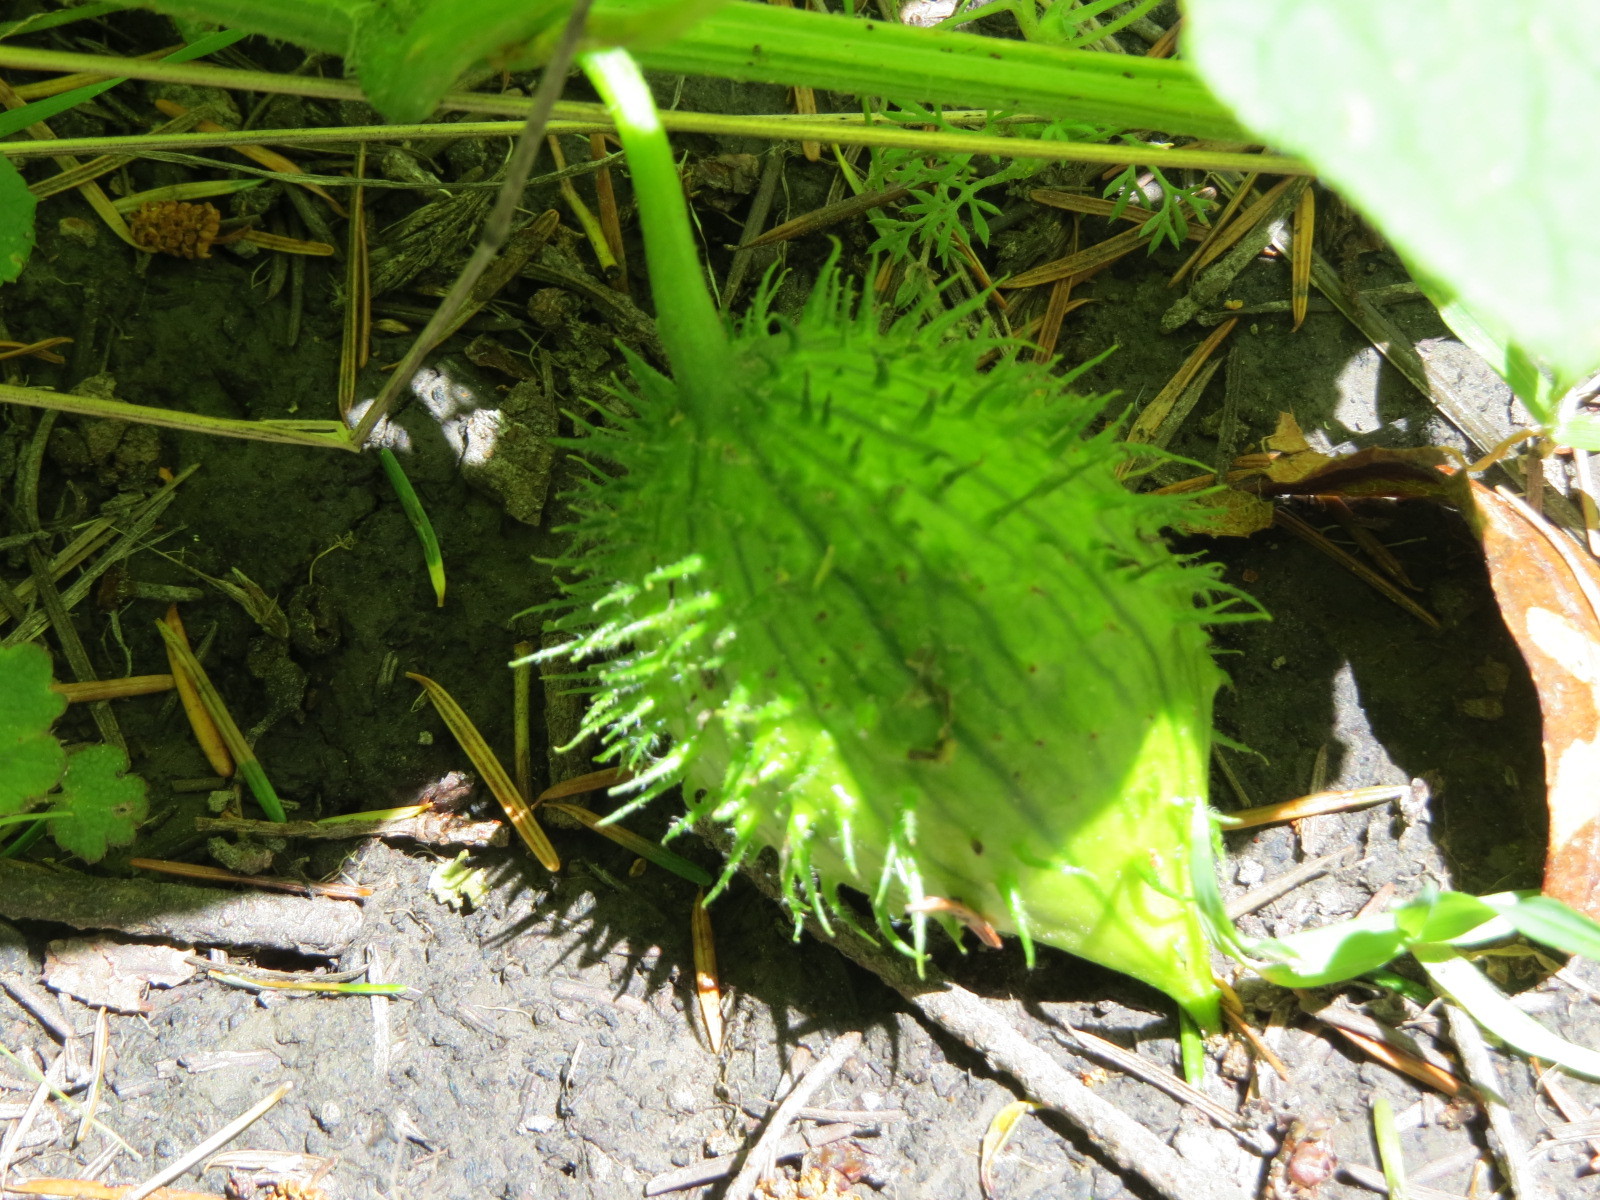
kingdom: Plantae
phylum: Tracheophyta
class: Magnoliopsida
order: Cucurbitales
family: Cucurbitaceae
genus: Marah
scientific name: Marah oregana
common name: Coastal manroot
